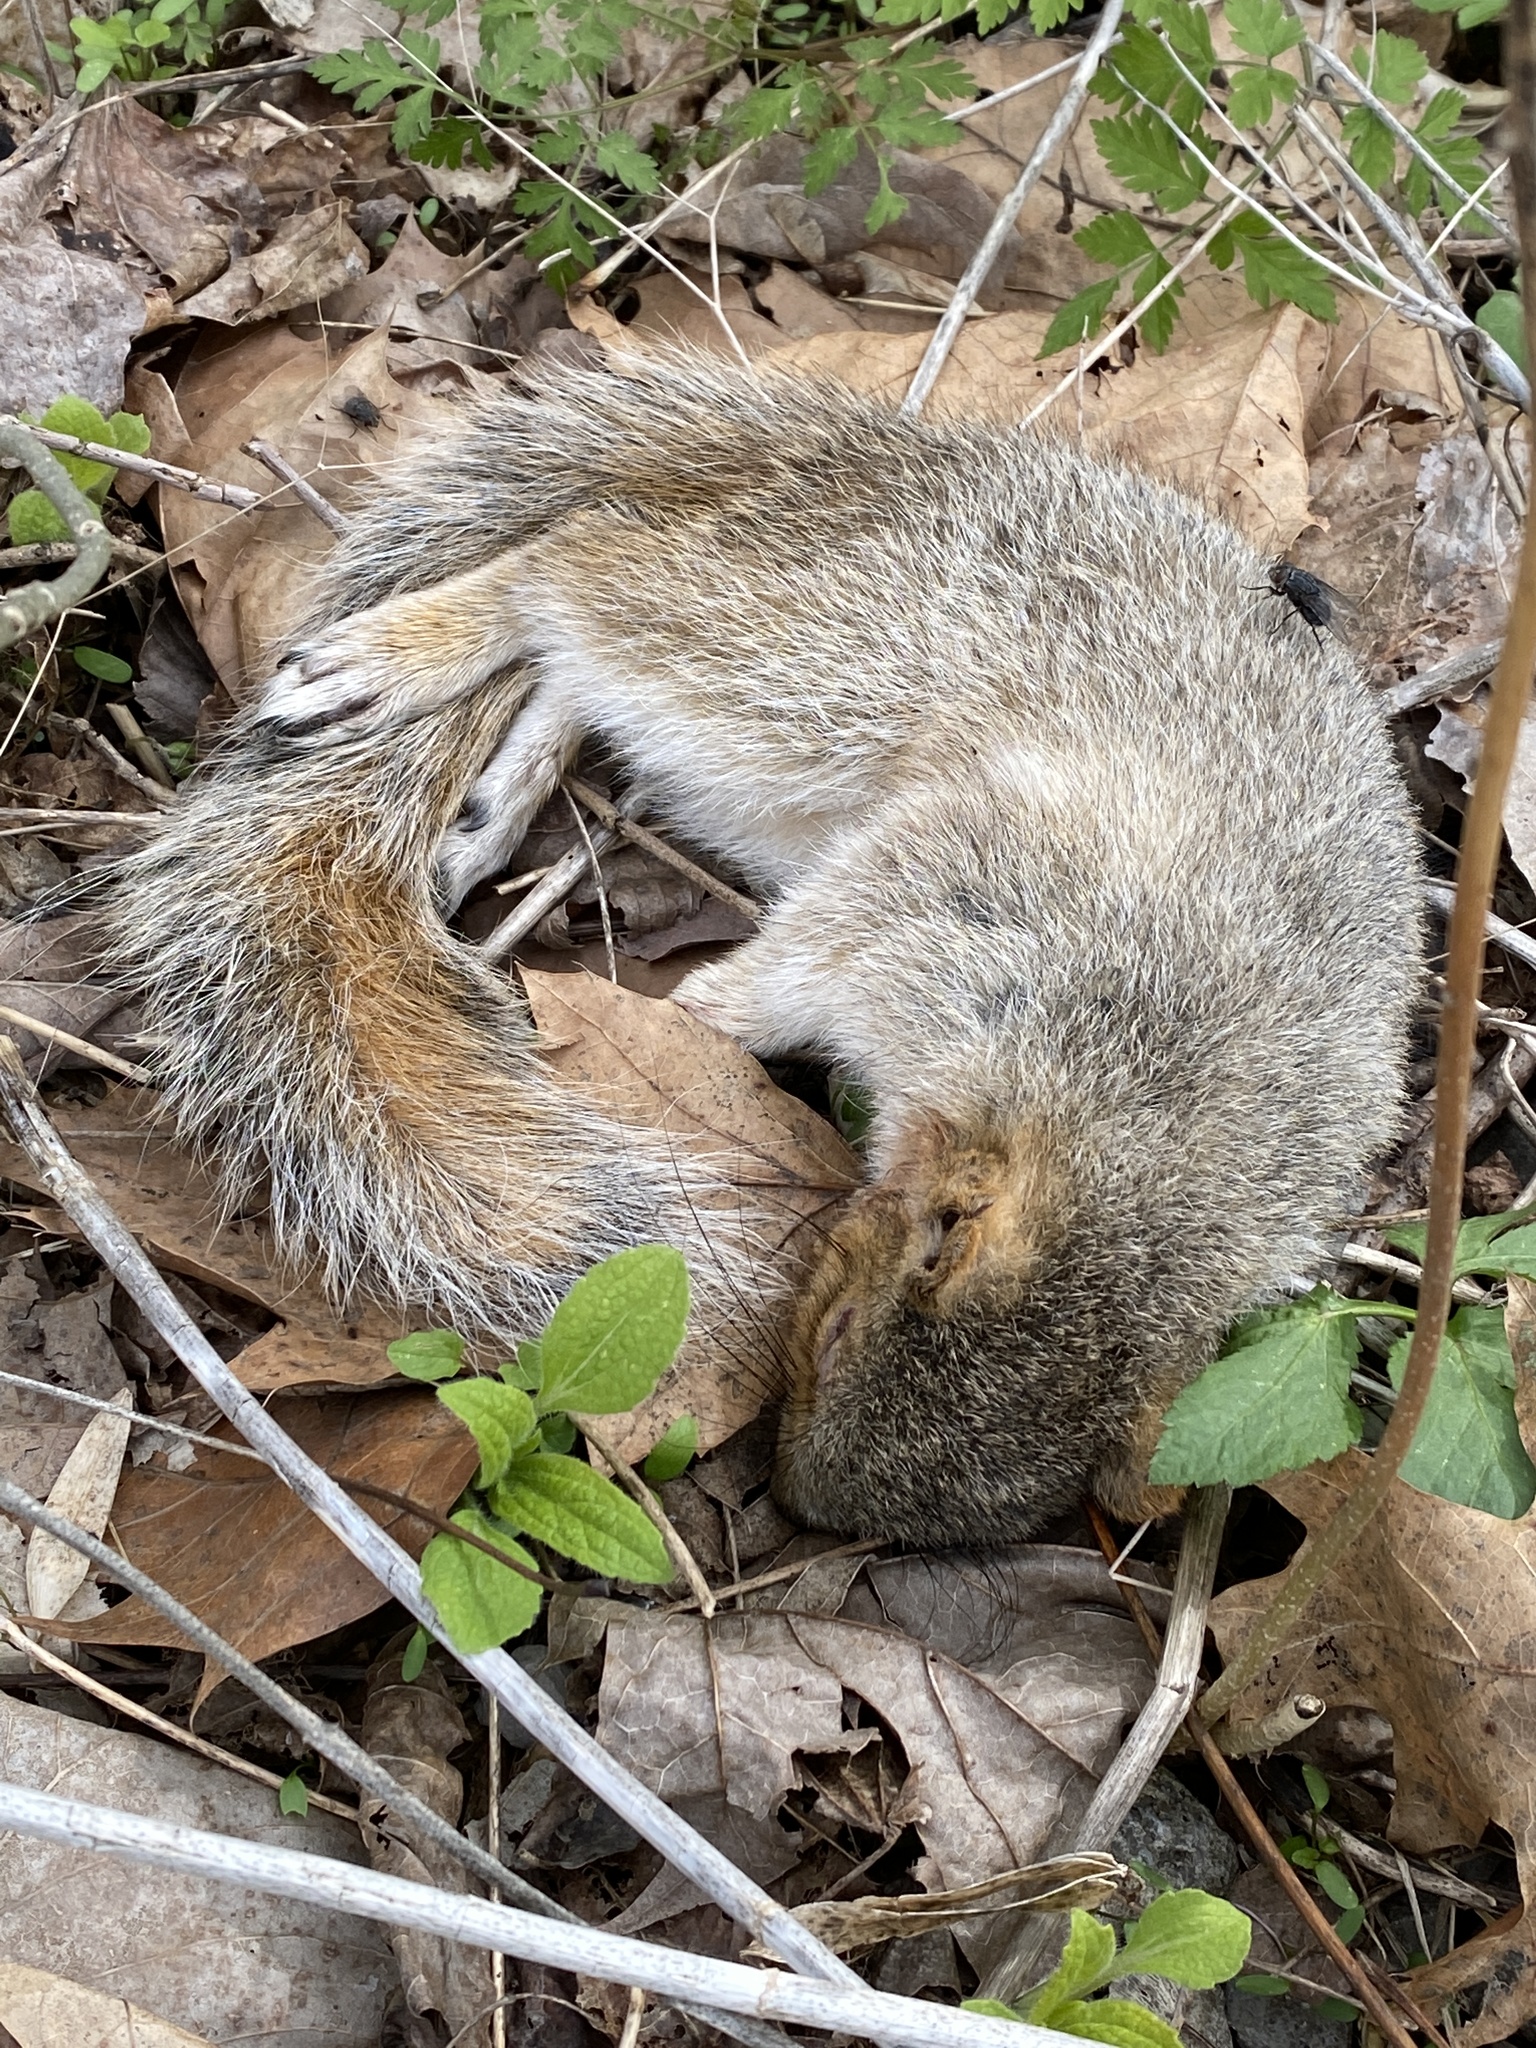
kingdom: Animalia
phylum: Chordata
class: Mammalia
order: Rodentia
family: Sciuridae
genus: Sciurus
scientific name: Sciurus carolinensis
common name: Eastern gray squirrel
